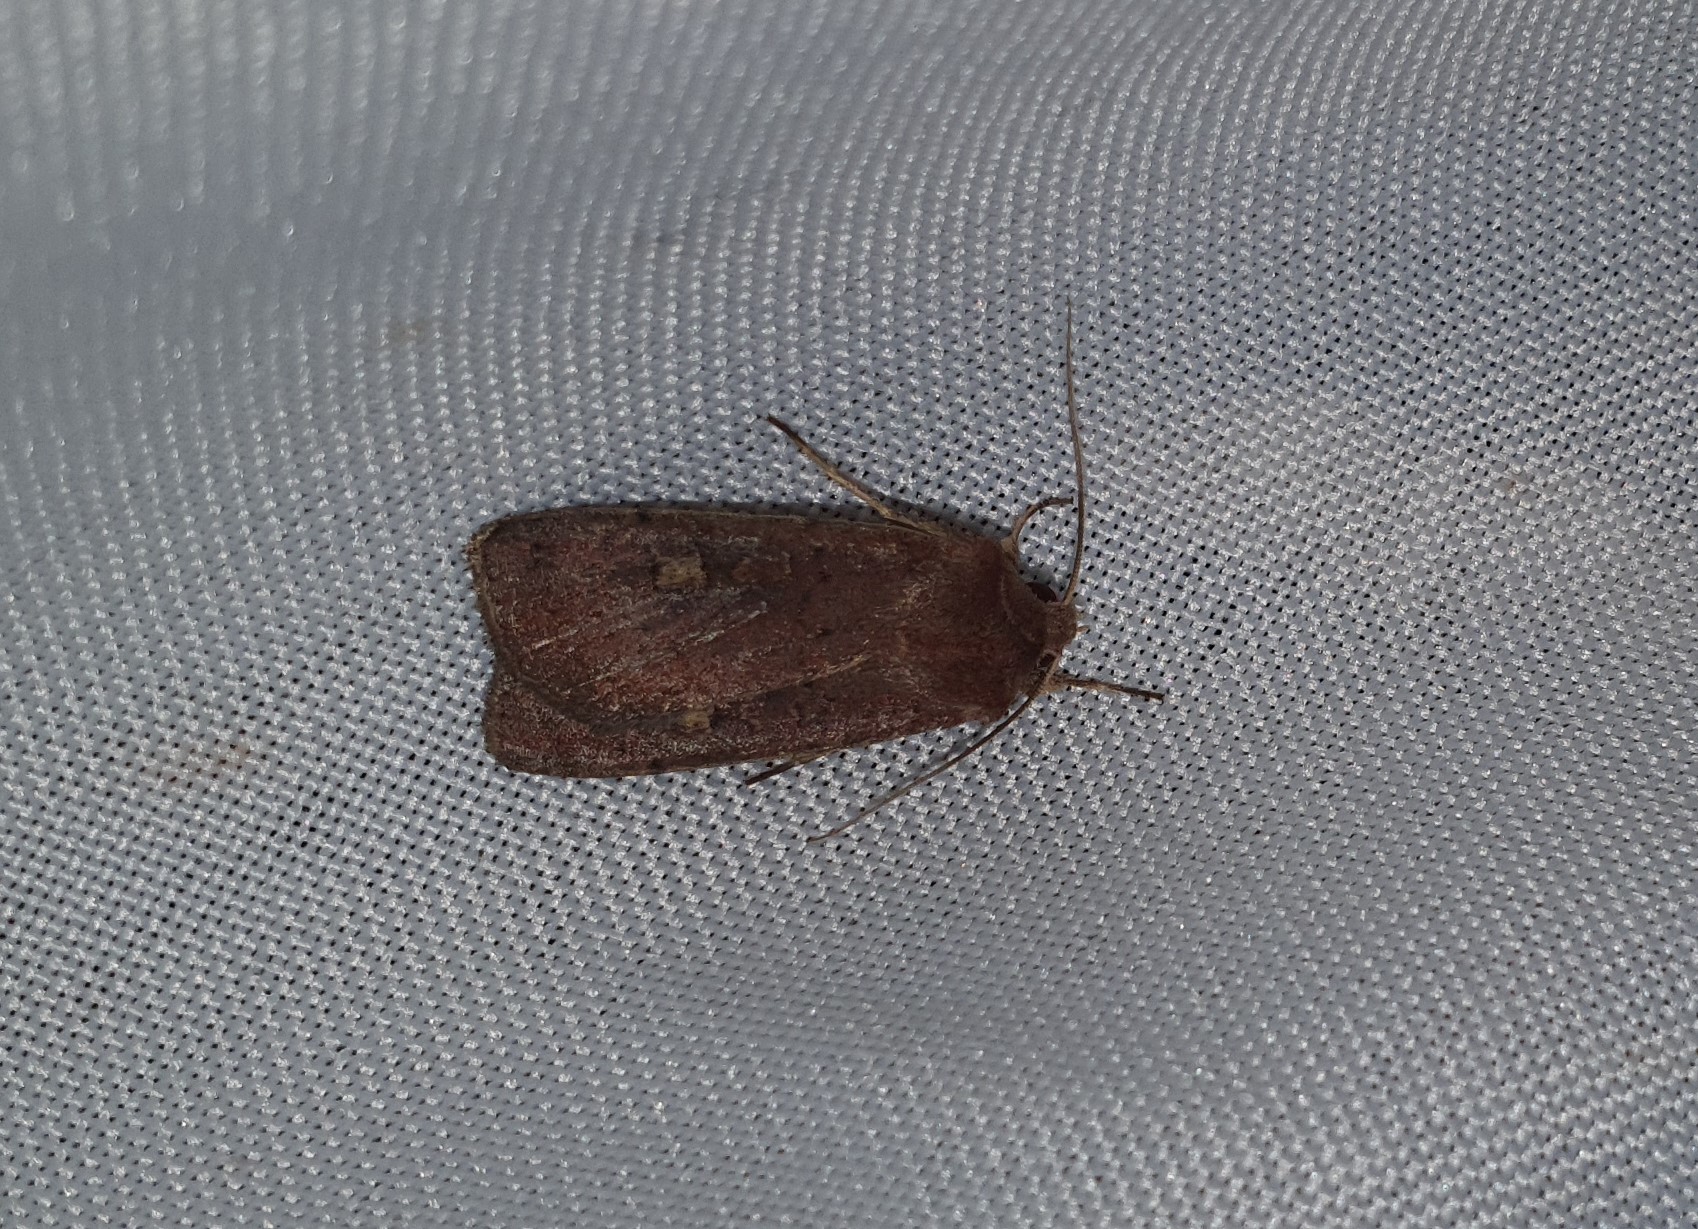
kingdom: Animalia
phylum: Arthropoda
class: Insecta
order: Lepidoptera
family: Noctuidae
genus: Xestia
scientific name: Xestia xanthographa
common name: Square-spot rustic
